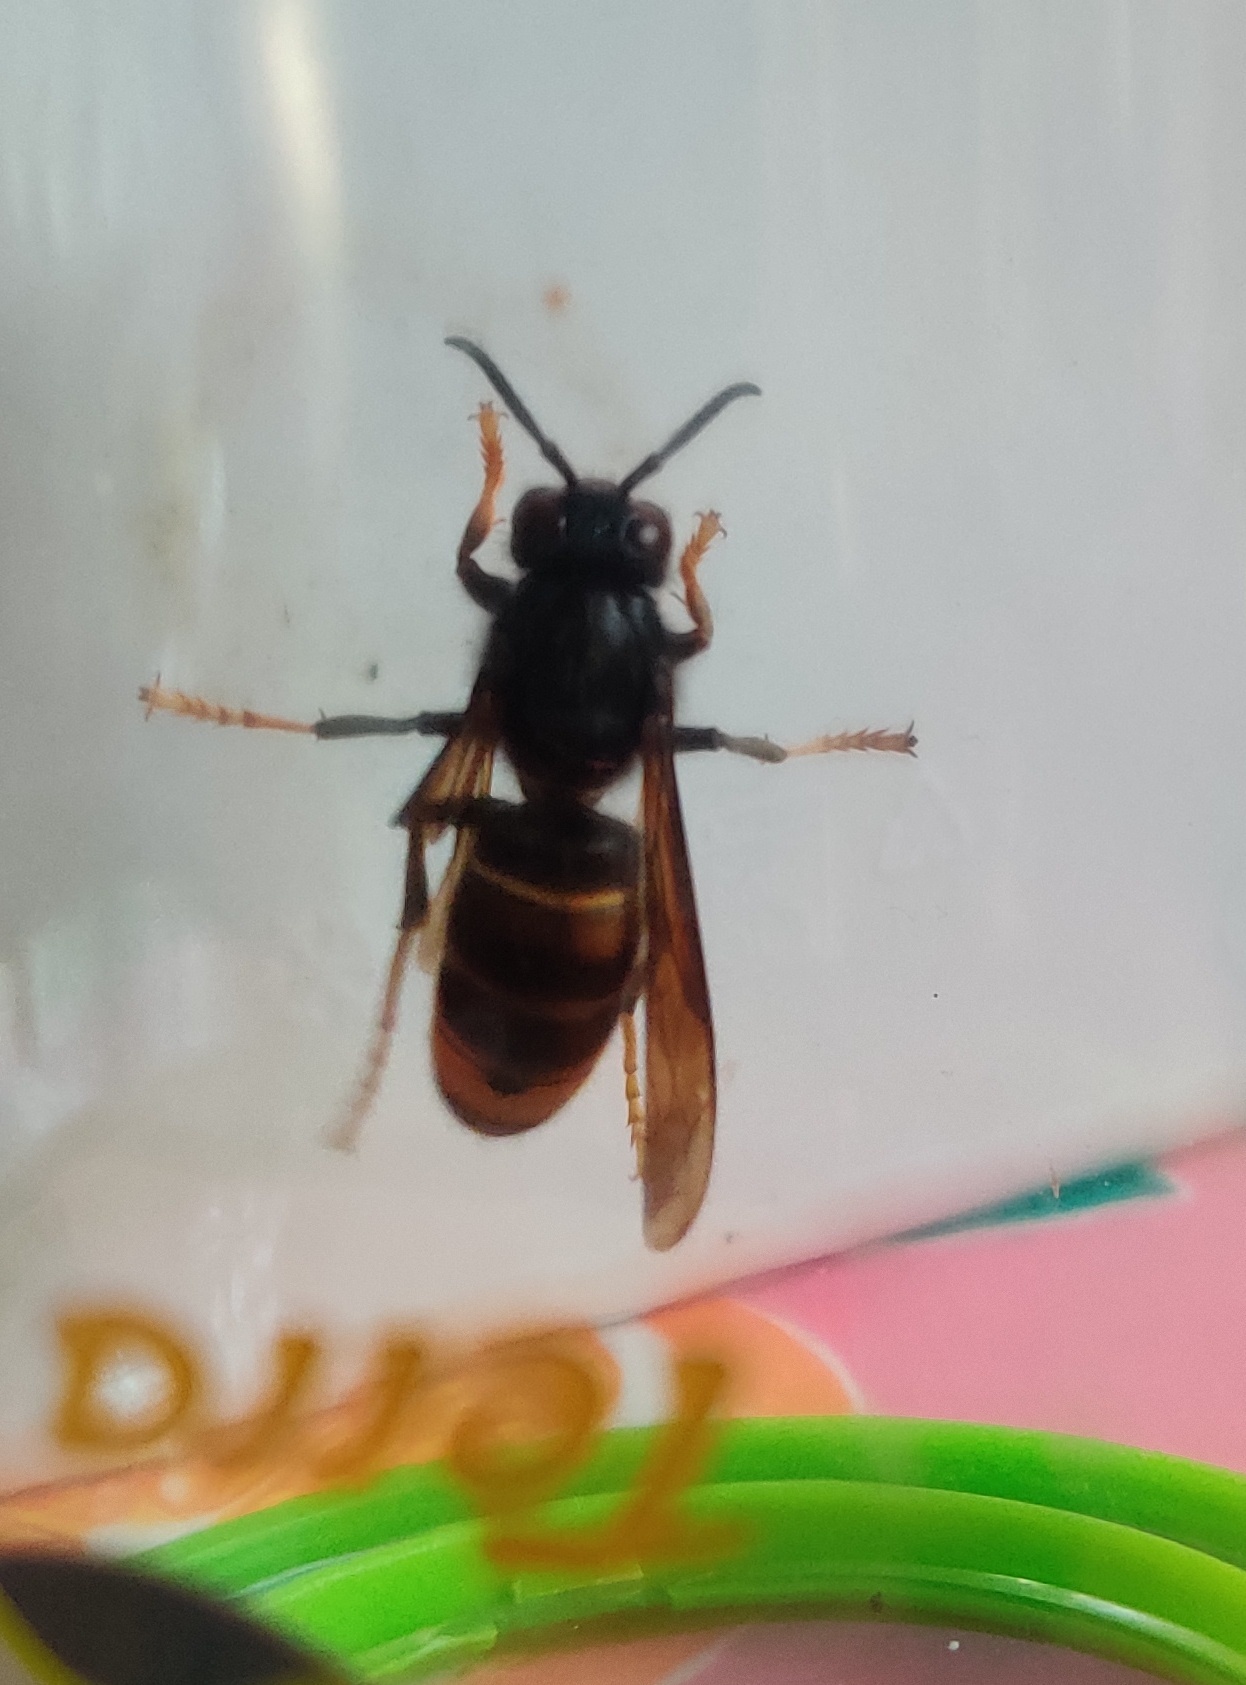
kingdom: Animalia
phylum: Arthropoda
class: Insecta
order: Hymenoptera
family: Vespidae
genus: Vespa
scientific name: Vespa velutina
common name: Asian hornet
